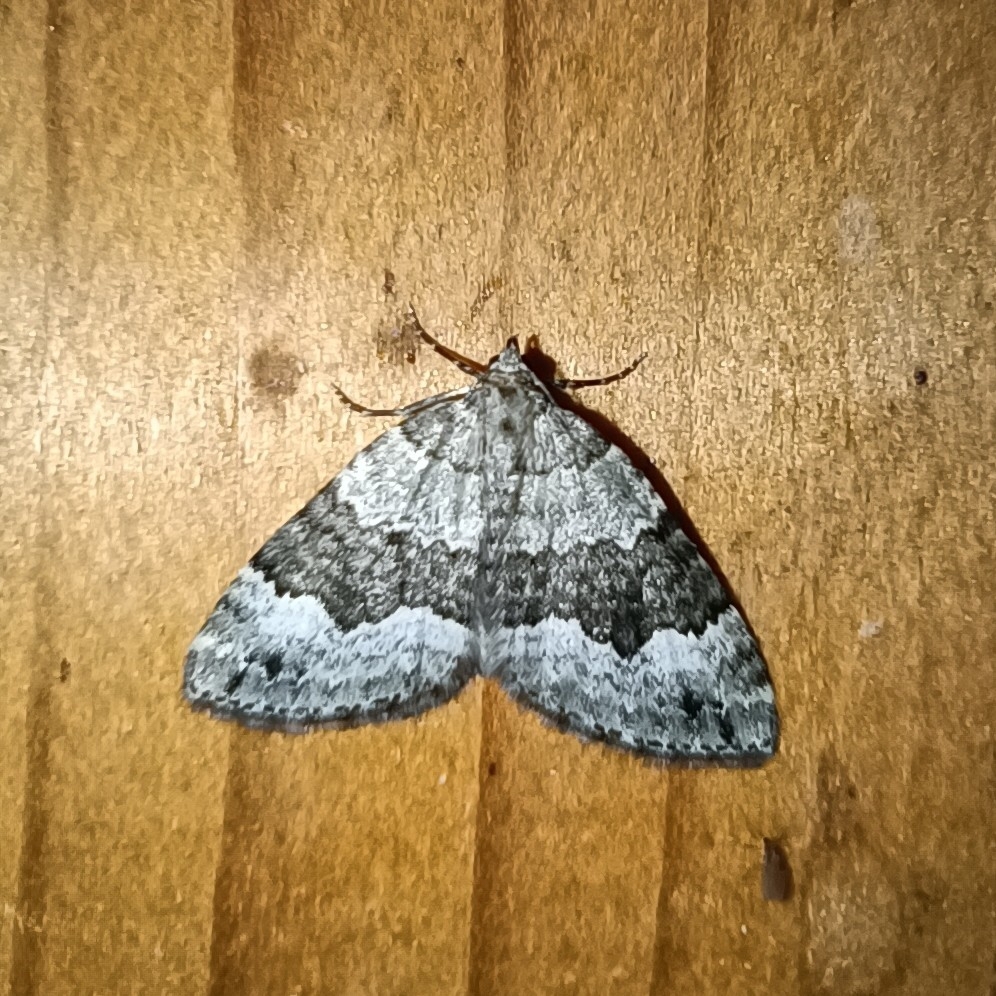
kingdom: Animalia
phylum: Arthropoda
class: Insecta
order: Lepidoptera
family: Geometridae
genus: Colostygia
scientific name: Colostygia aptata
